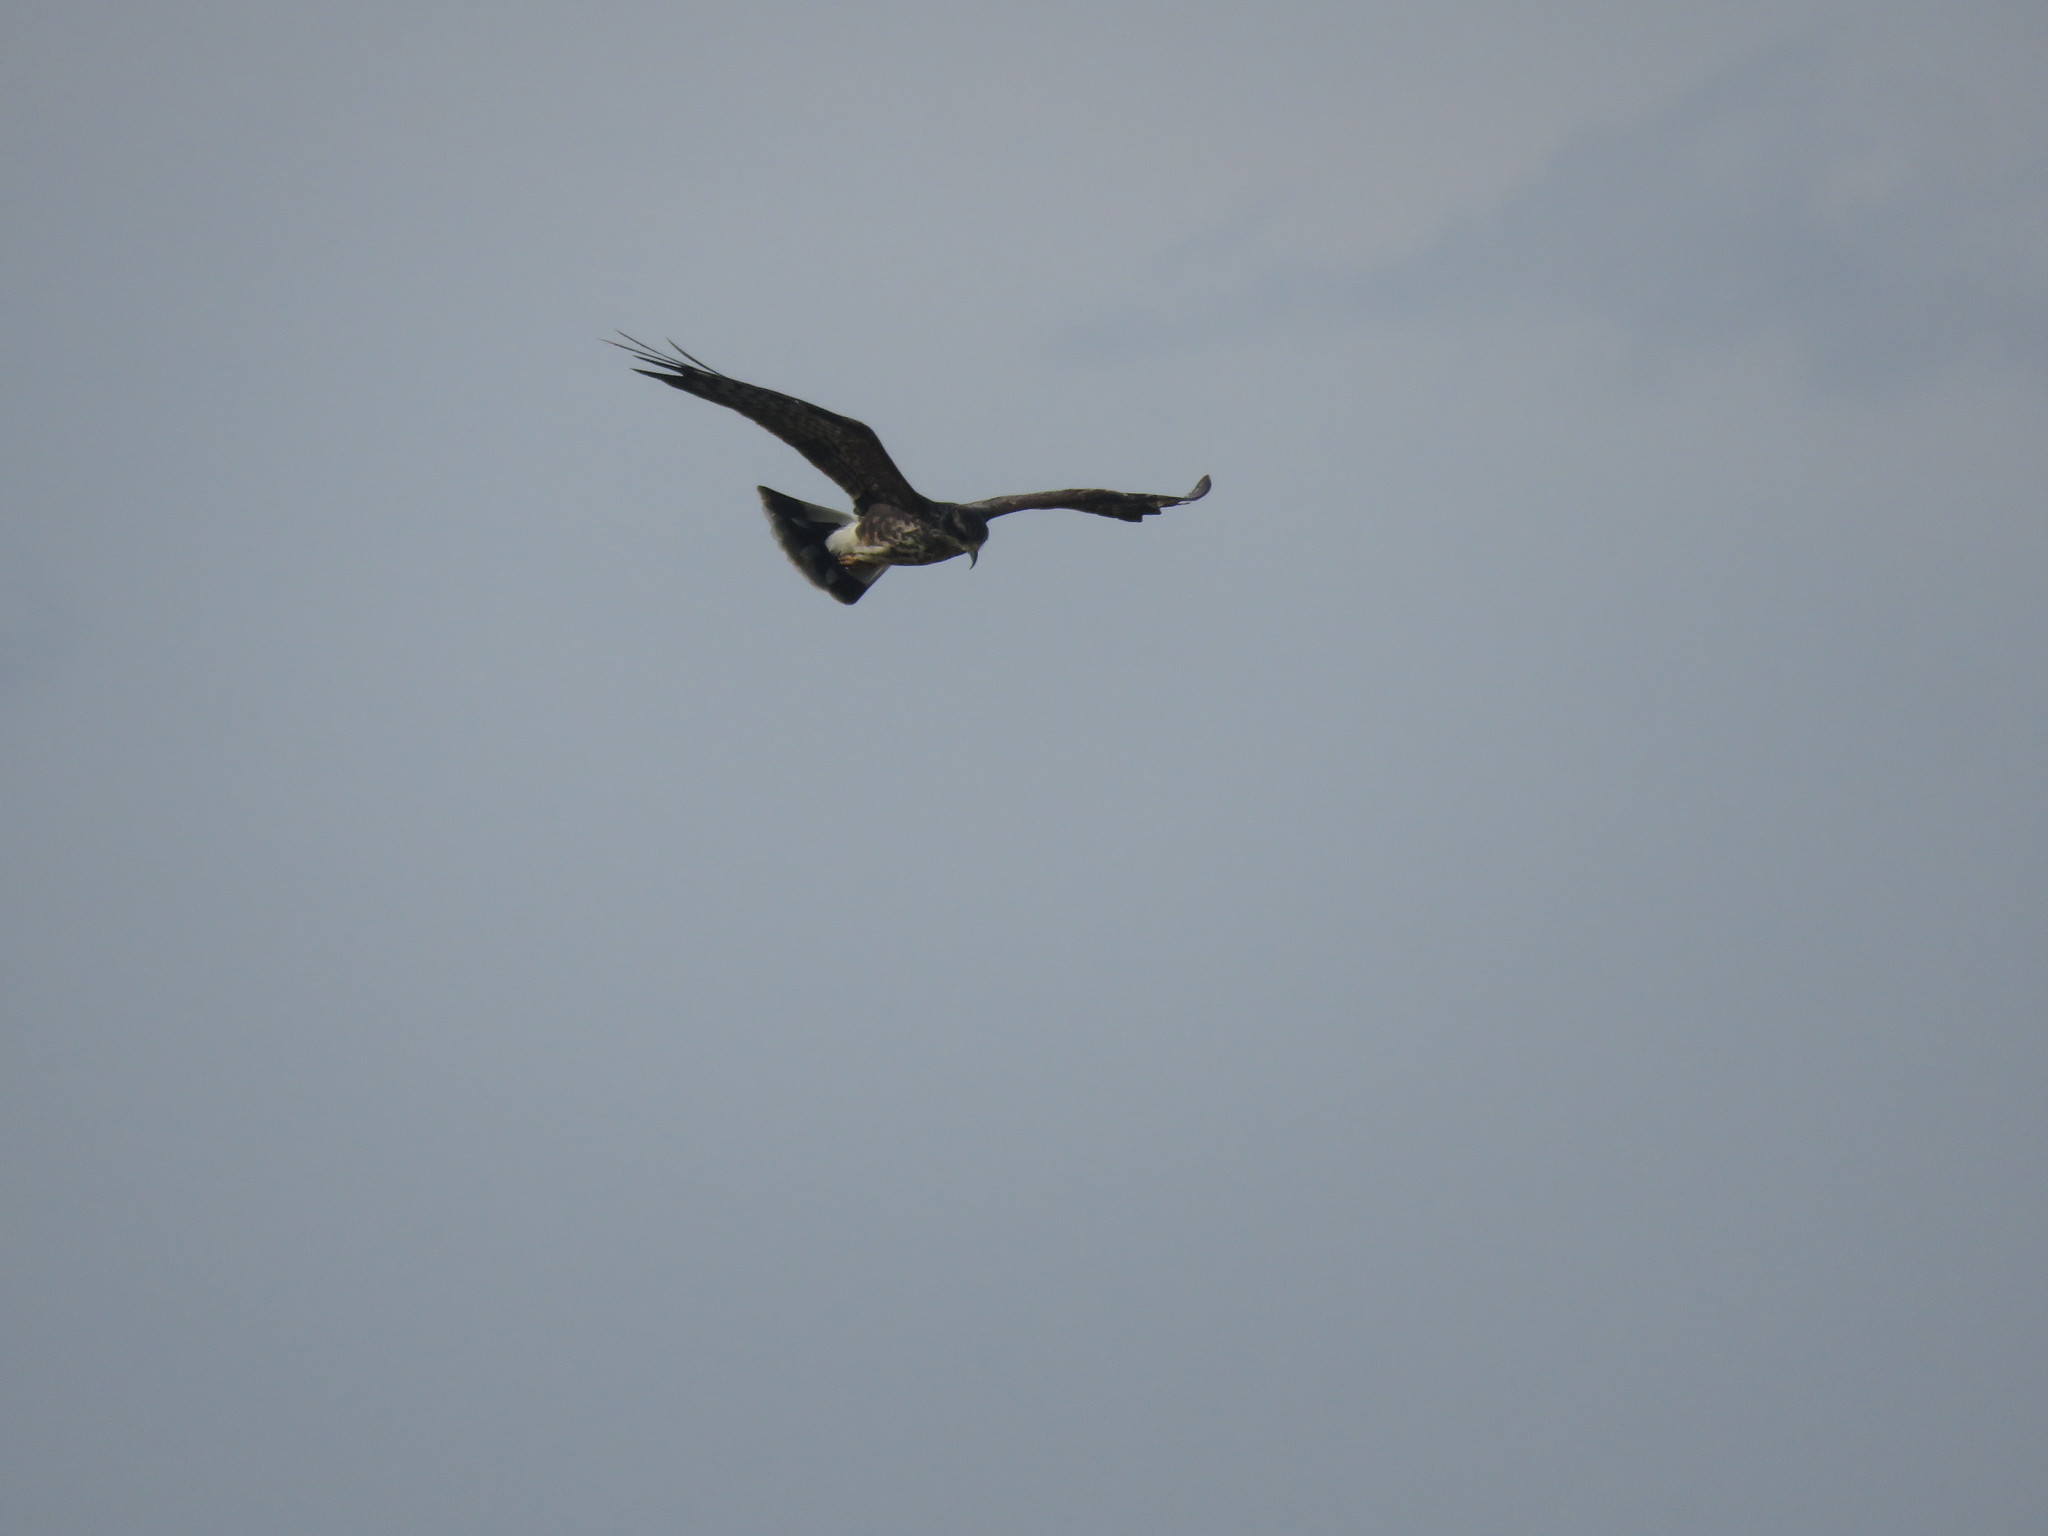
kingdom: Animalia
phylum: Chordata
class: Aves
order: Accipitriformes
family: Accipitridae
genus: Rostrhamus
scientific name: Rostrhamus sociabilis
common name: Snail kite
